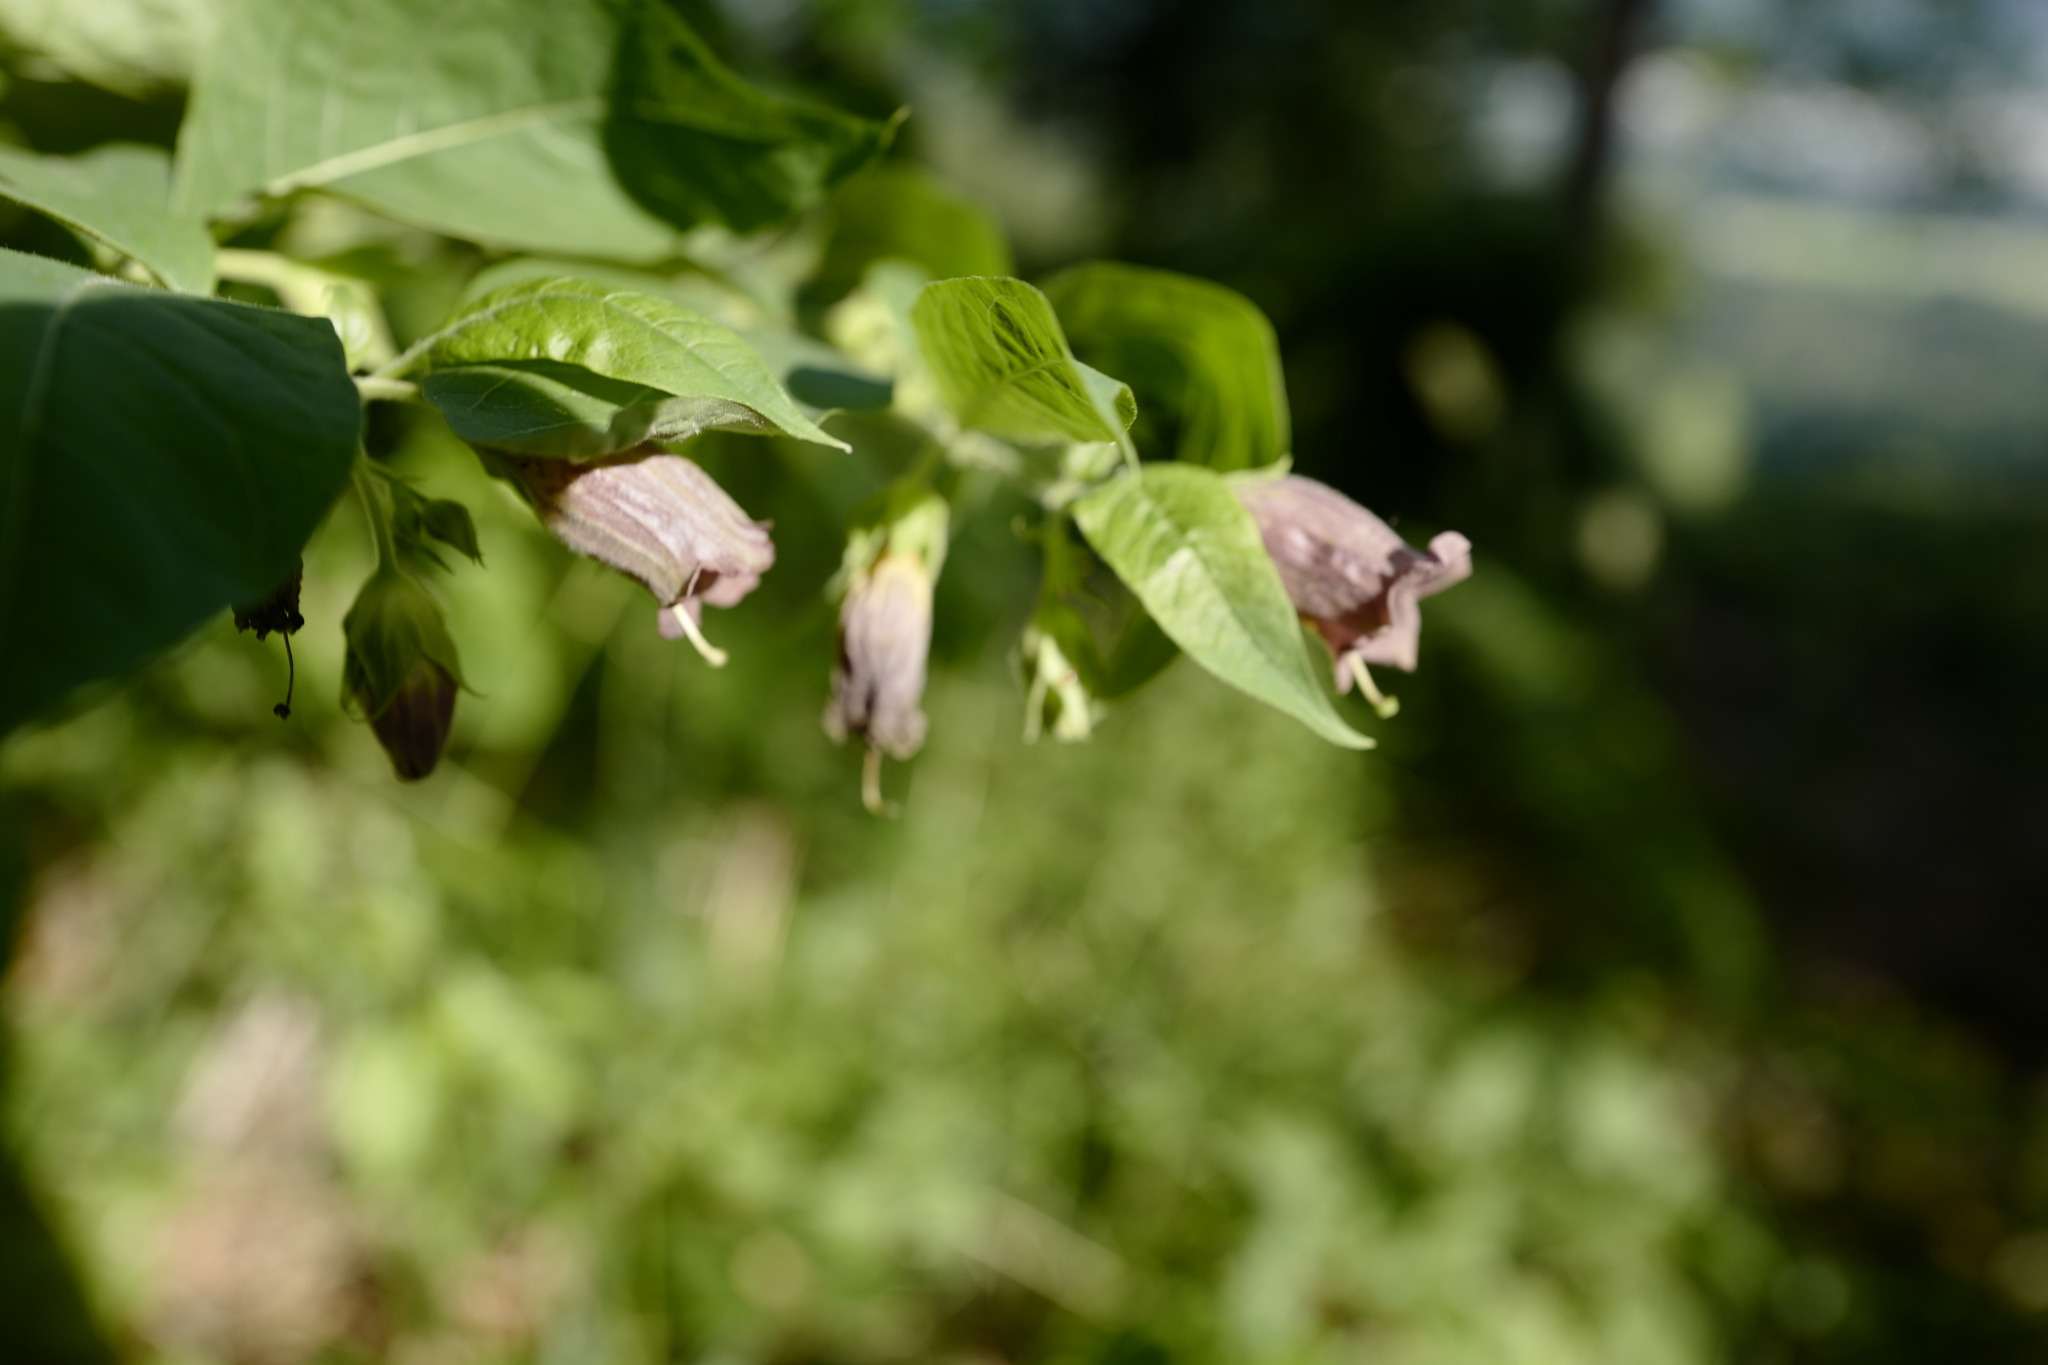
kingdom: Plantae
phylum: Tracheophyta
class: Magnoliopsida
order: Solanales
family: Solanaceae
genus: Atropa
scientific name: Atropa belladonna
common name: Deadly nightshade
